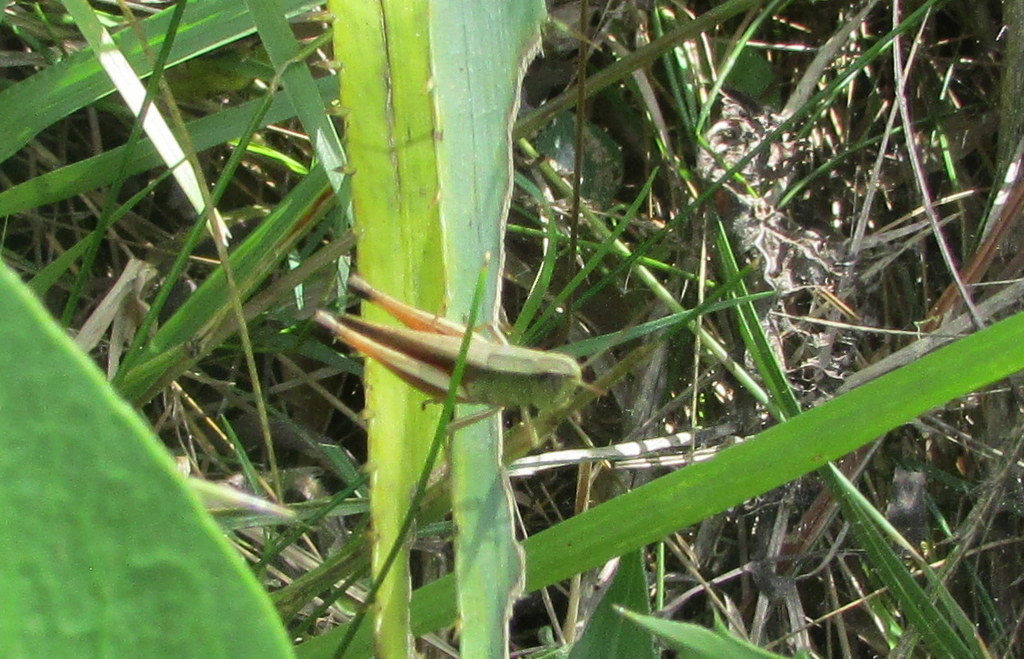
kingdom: Animalia
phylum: Arthropoda
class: Insecta
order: Orthoptera
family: Acrididae
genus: Amblytropidia
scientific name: Amblytropidia australis
